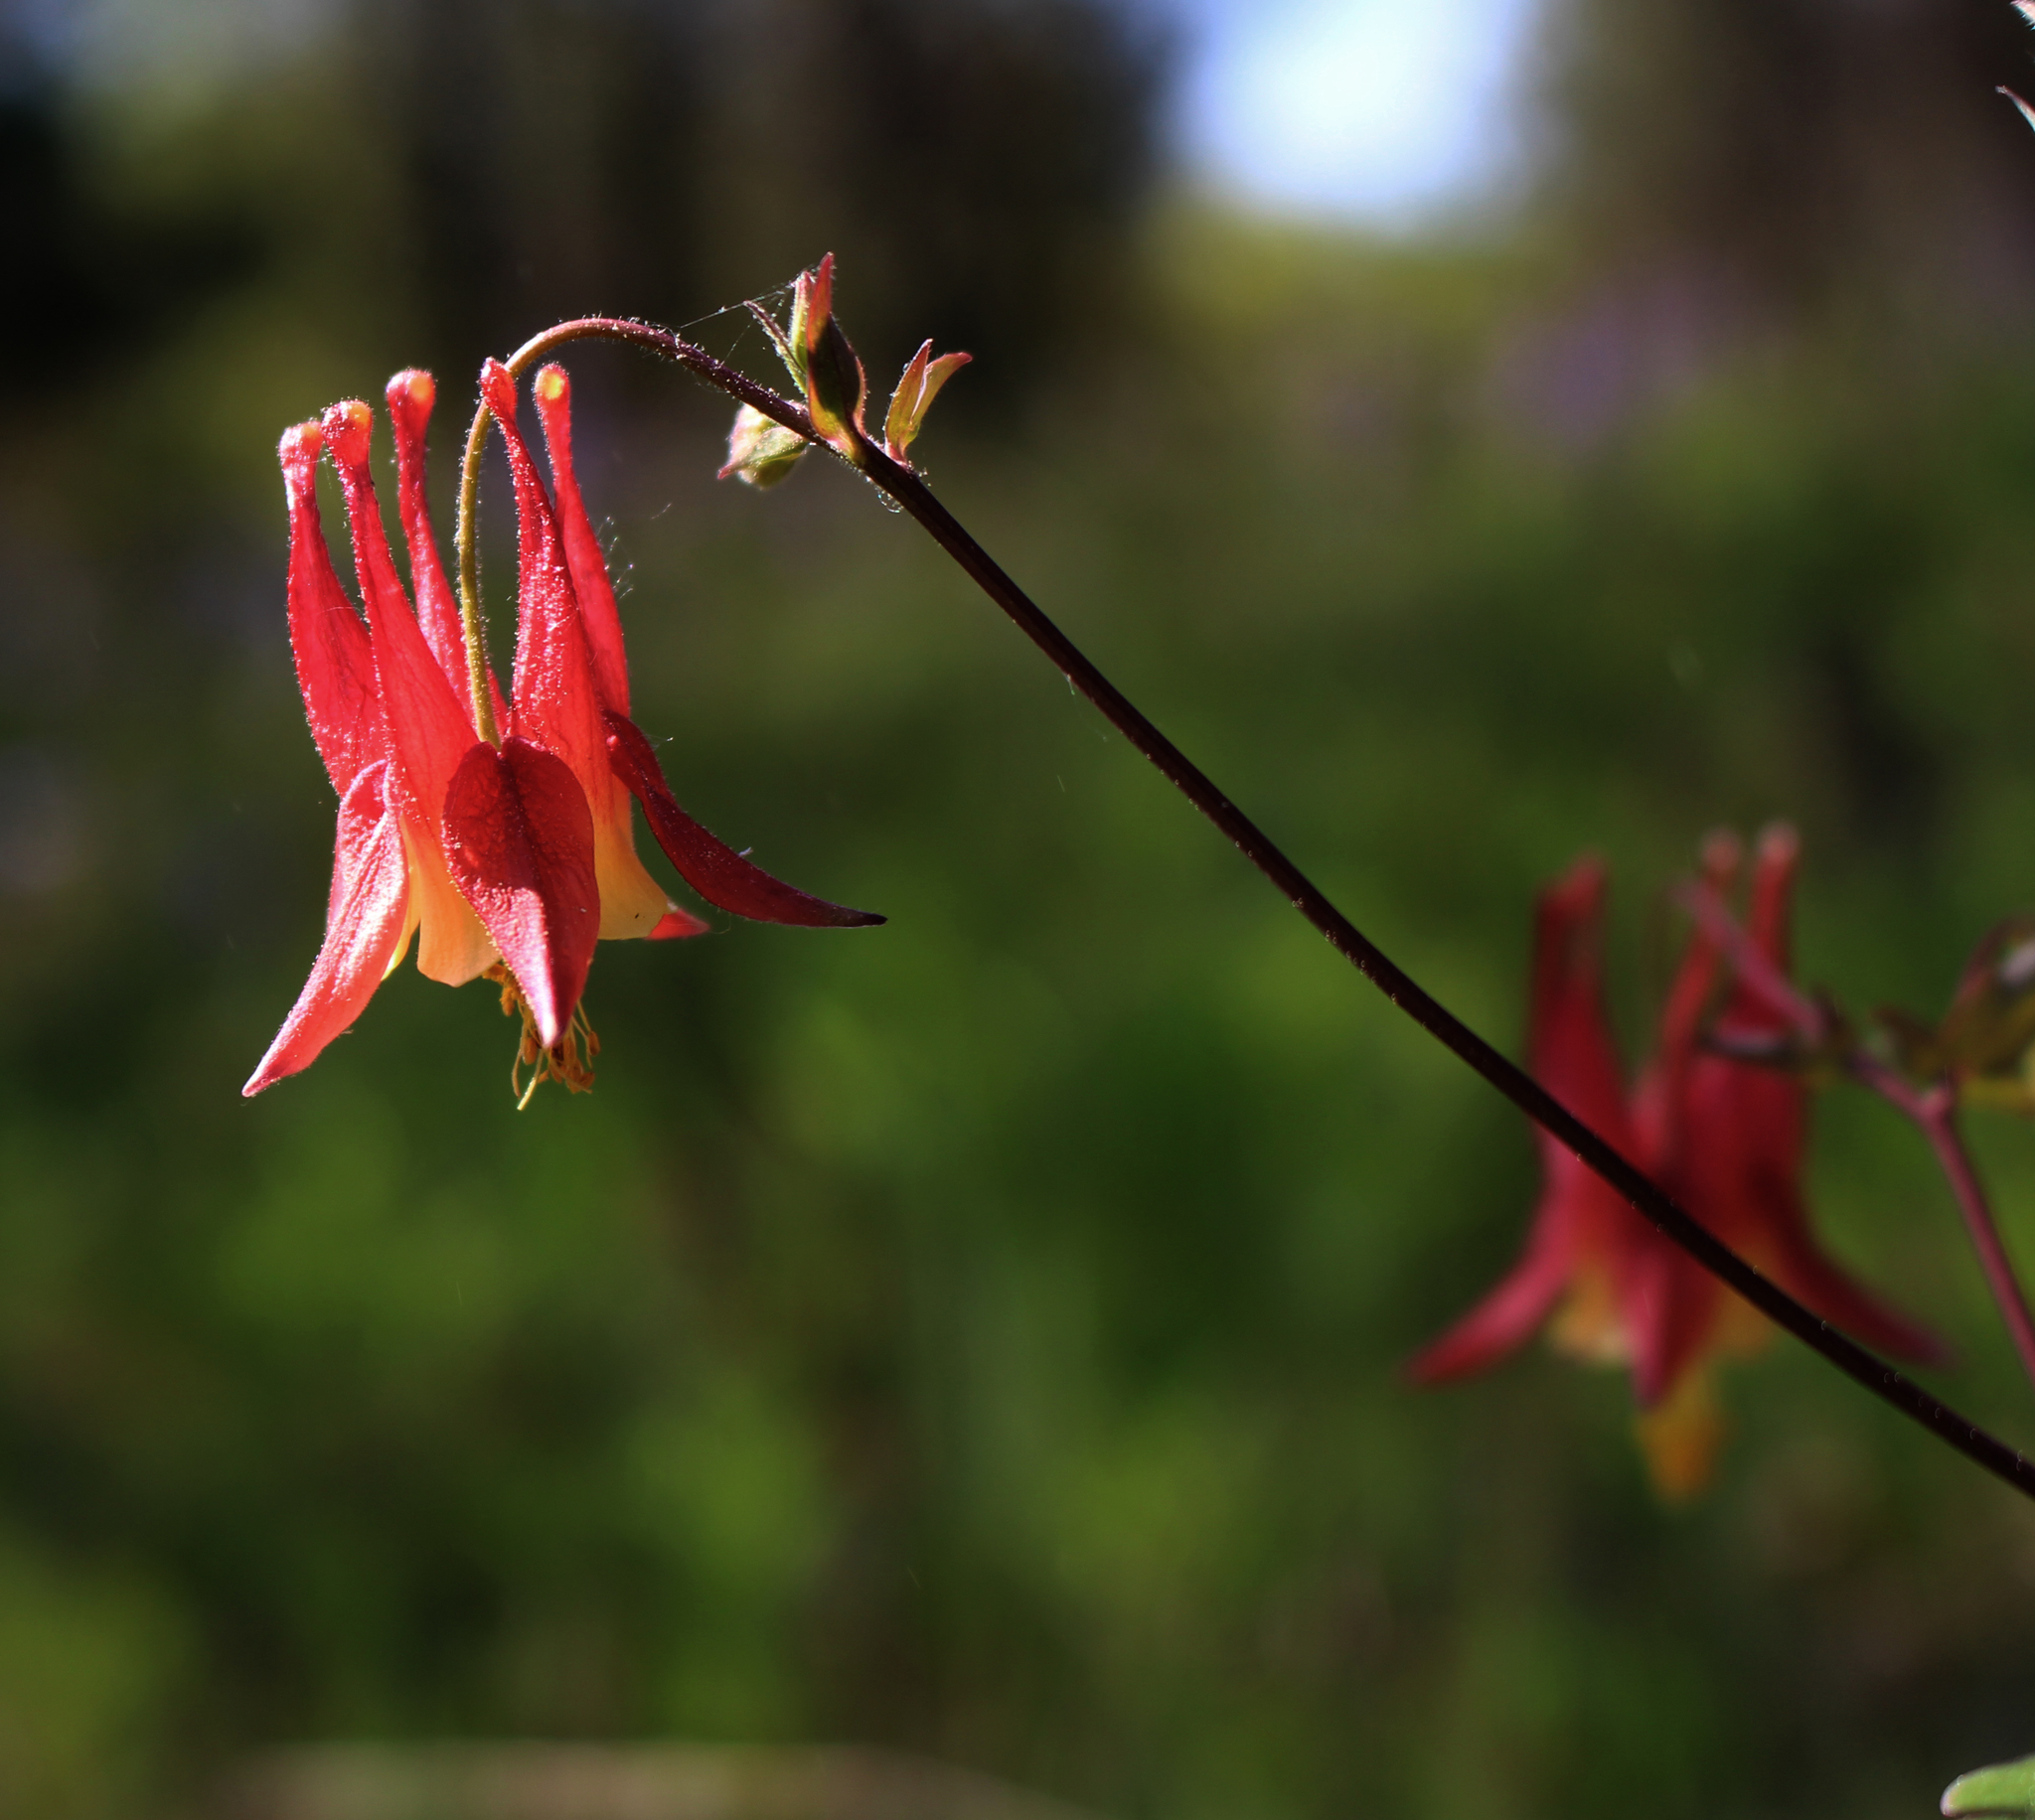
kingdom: Plantae
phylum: Tracheophyta
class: Magnoliopsida
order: Ranunculales
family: Ranunculaceae
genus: Aquilegia
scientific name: Aquilegia canadensis
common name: American columbine
